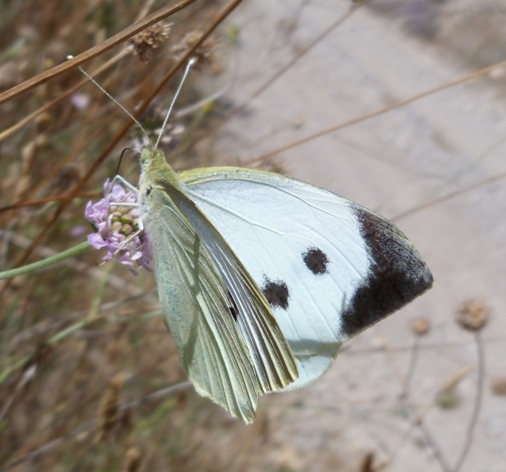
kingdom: Animalia
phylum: Arthropoda
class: Insecta
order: Lepidoptera
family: Pieridae
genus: Pieris
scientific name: Pieris brassicae
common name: Large white
